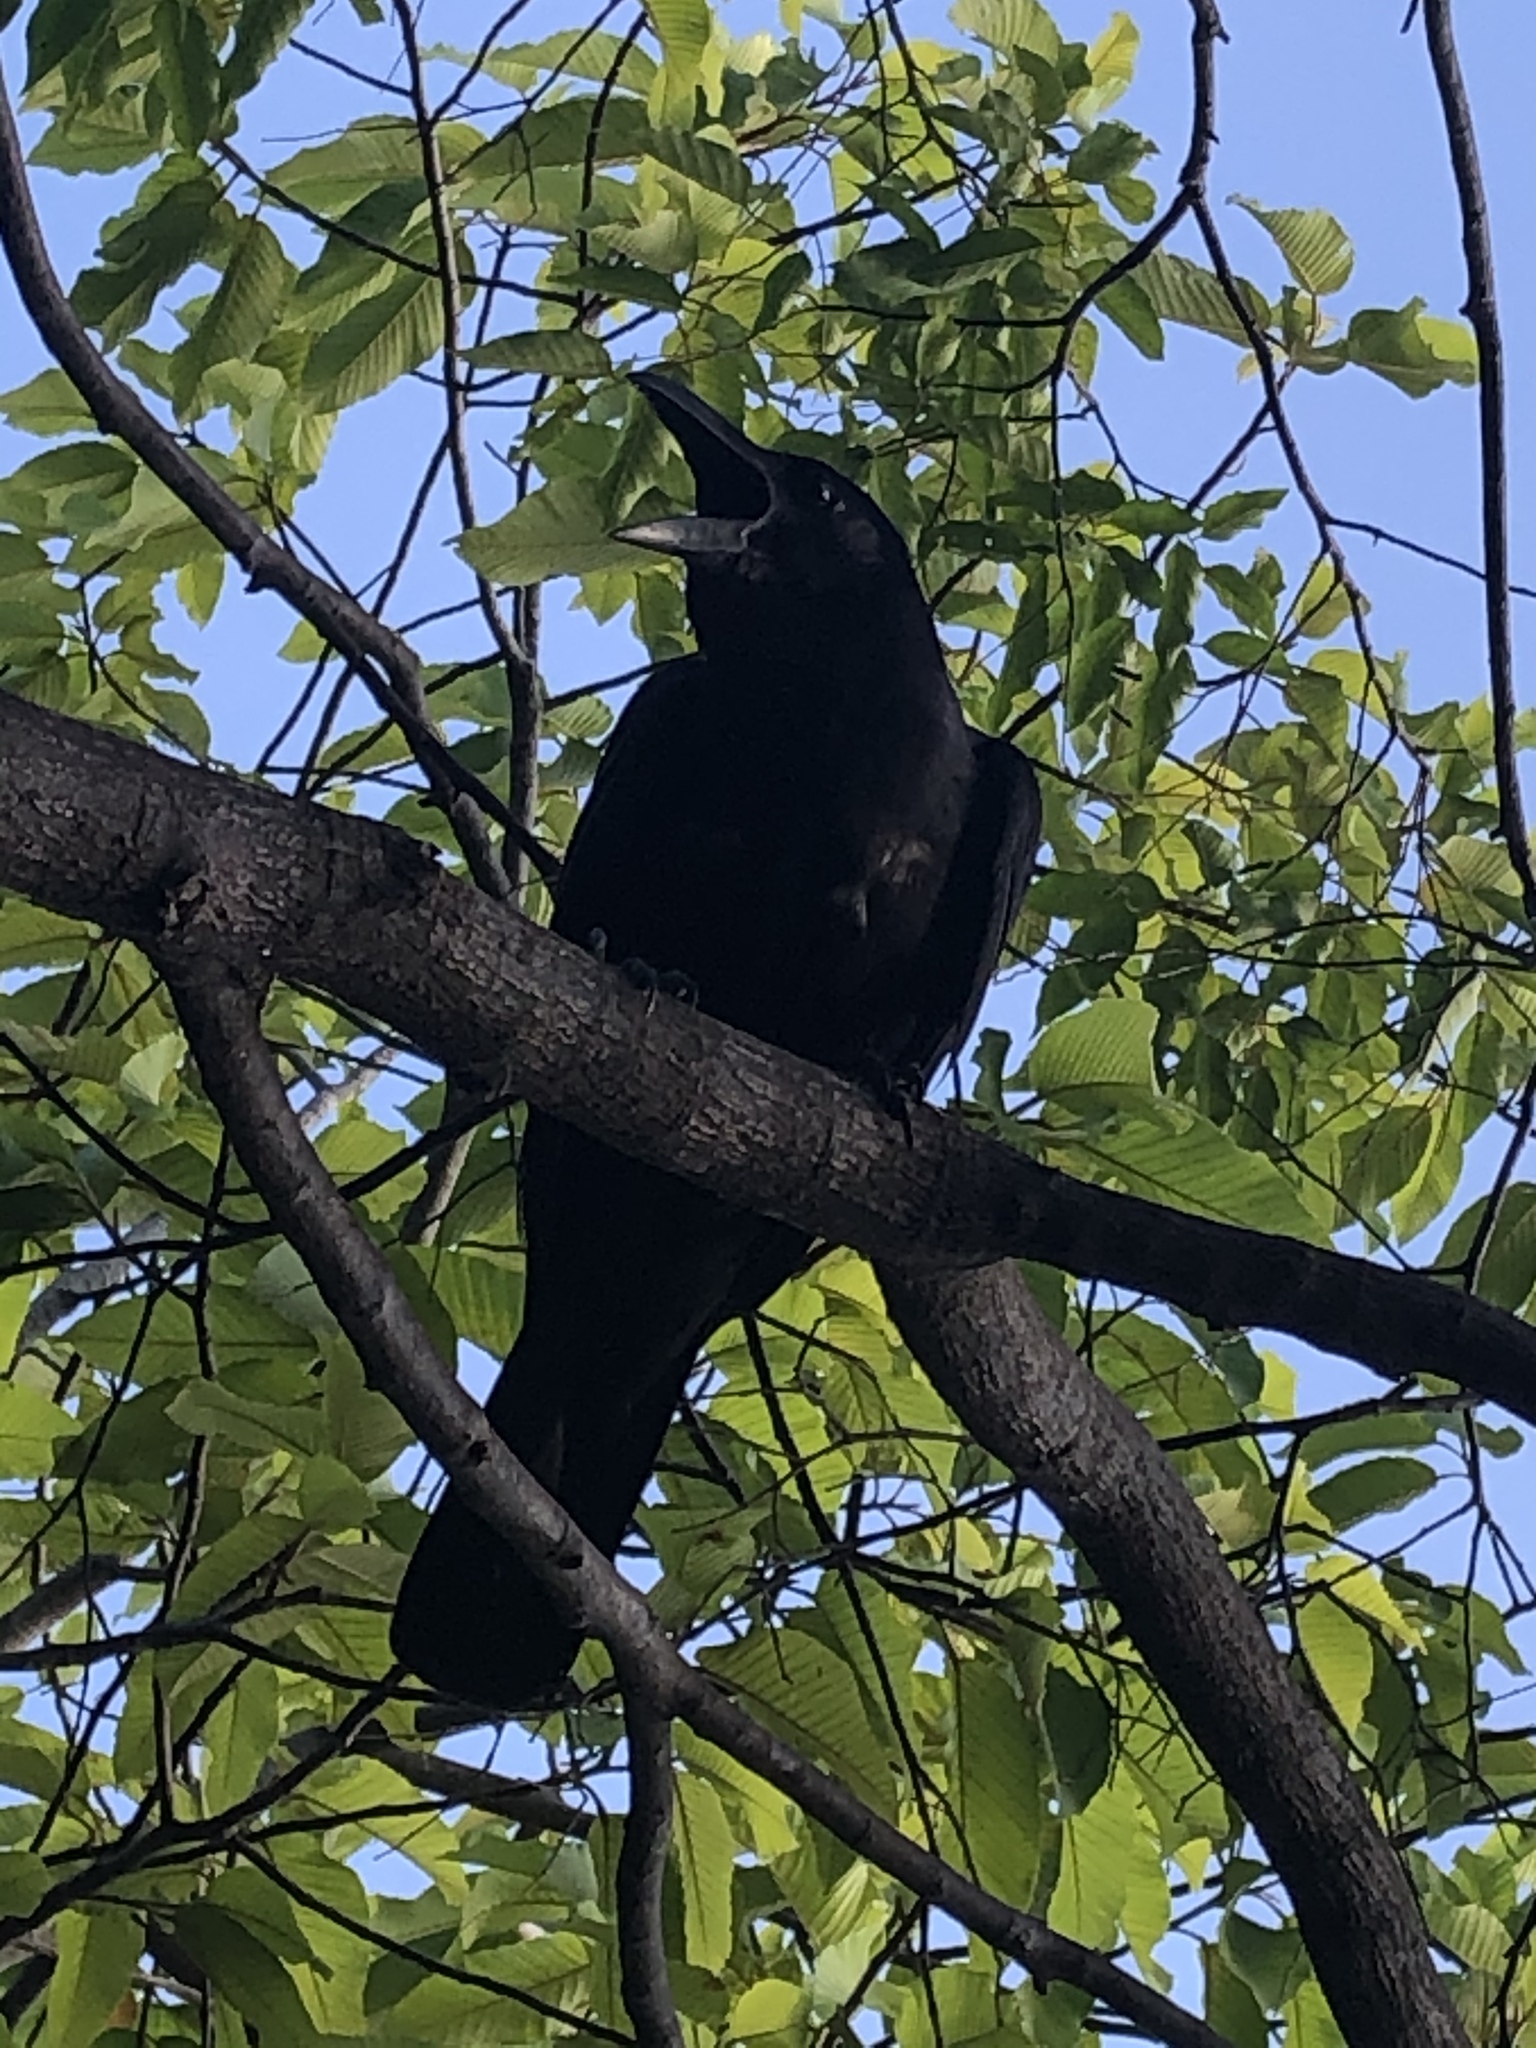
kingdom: Animalia
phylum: Chordata
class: Aves
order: Passeriformes
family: Corvidae
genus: Corvus
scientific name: Corvus macrorhynchos
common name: Large-billed crow
